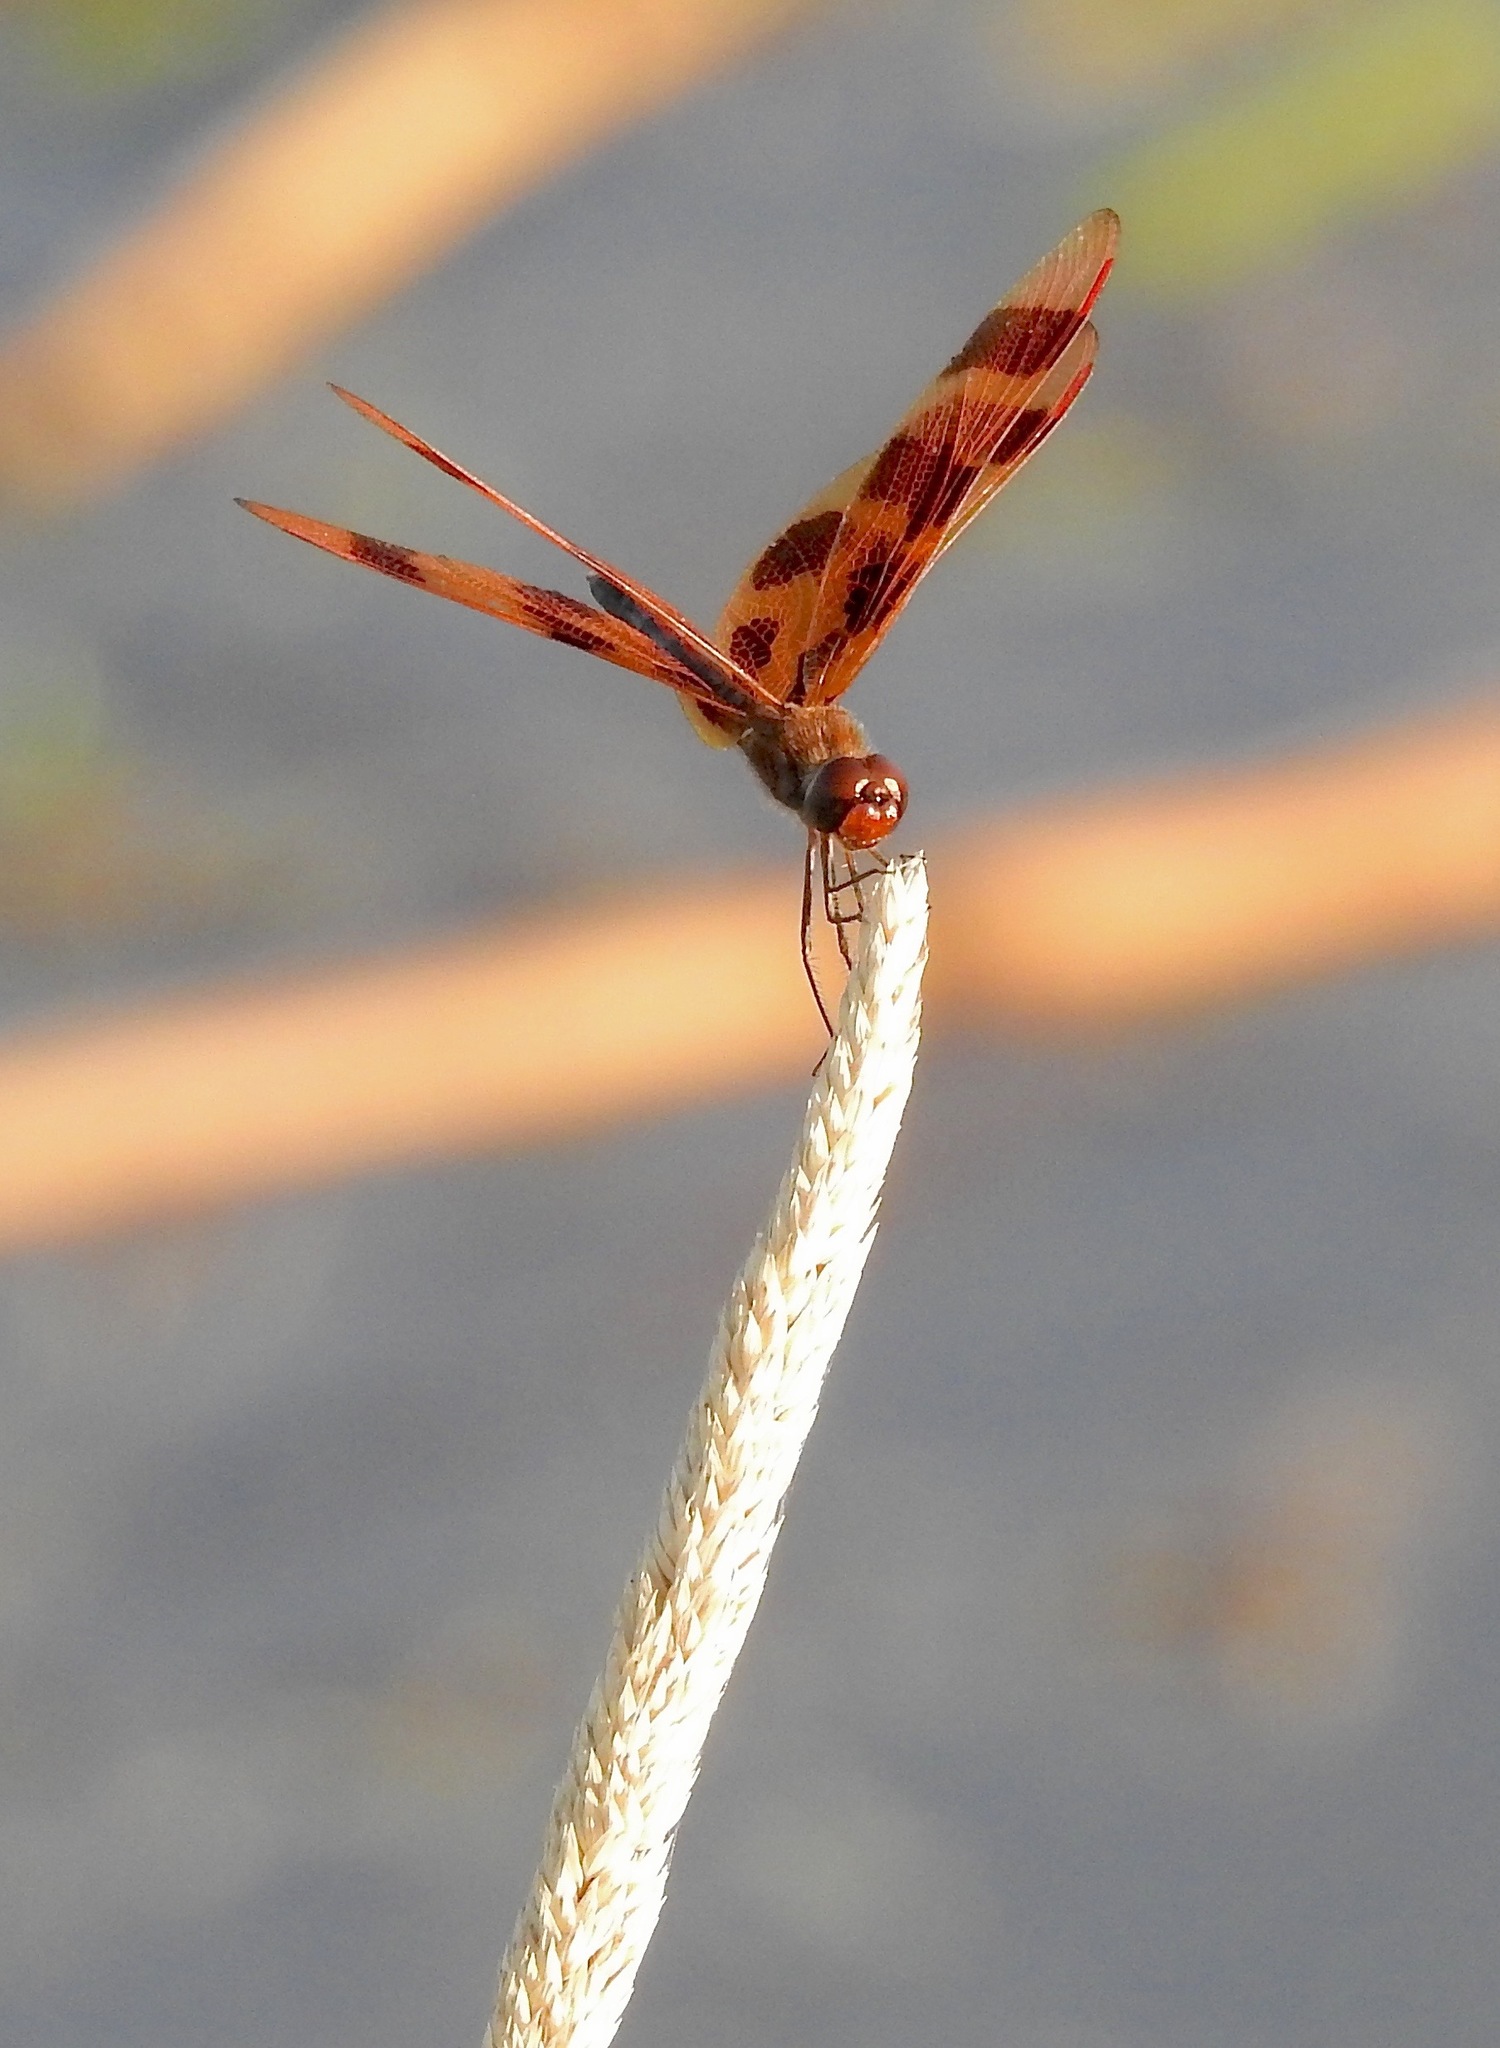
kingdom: Animalia
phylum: Arthropoda
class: Insecta
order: Odonata
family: Libellulidae
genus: Celithemis
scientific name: Celithemis eponina
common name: Halloween pennant
